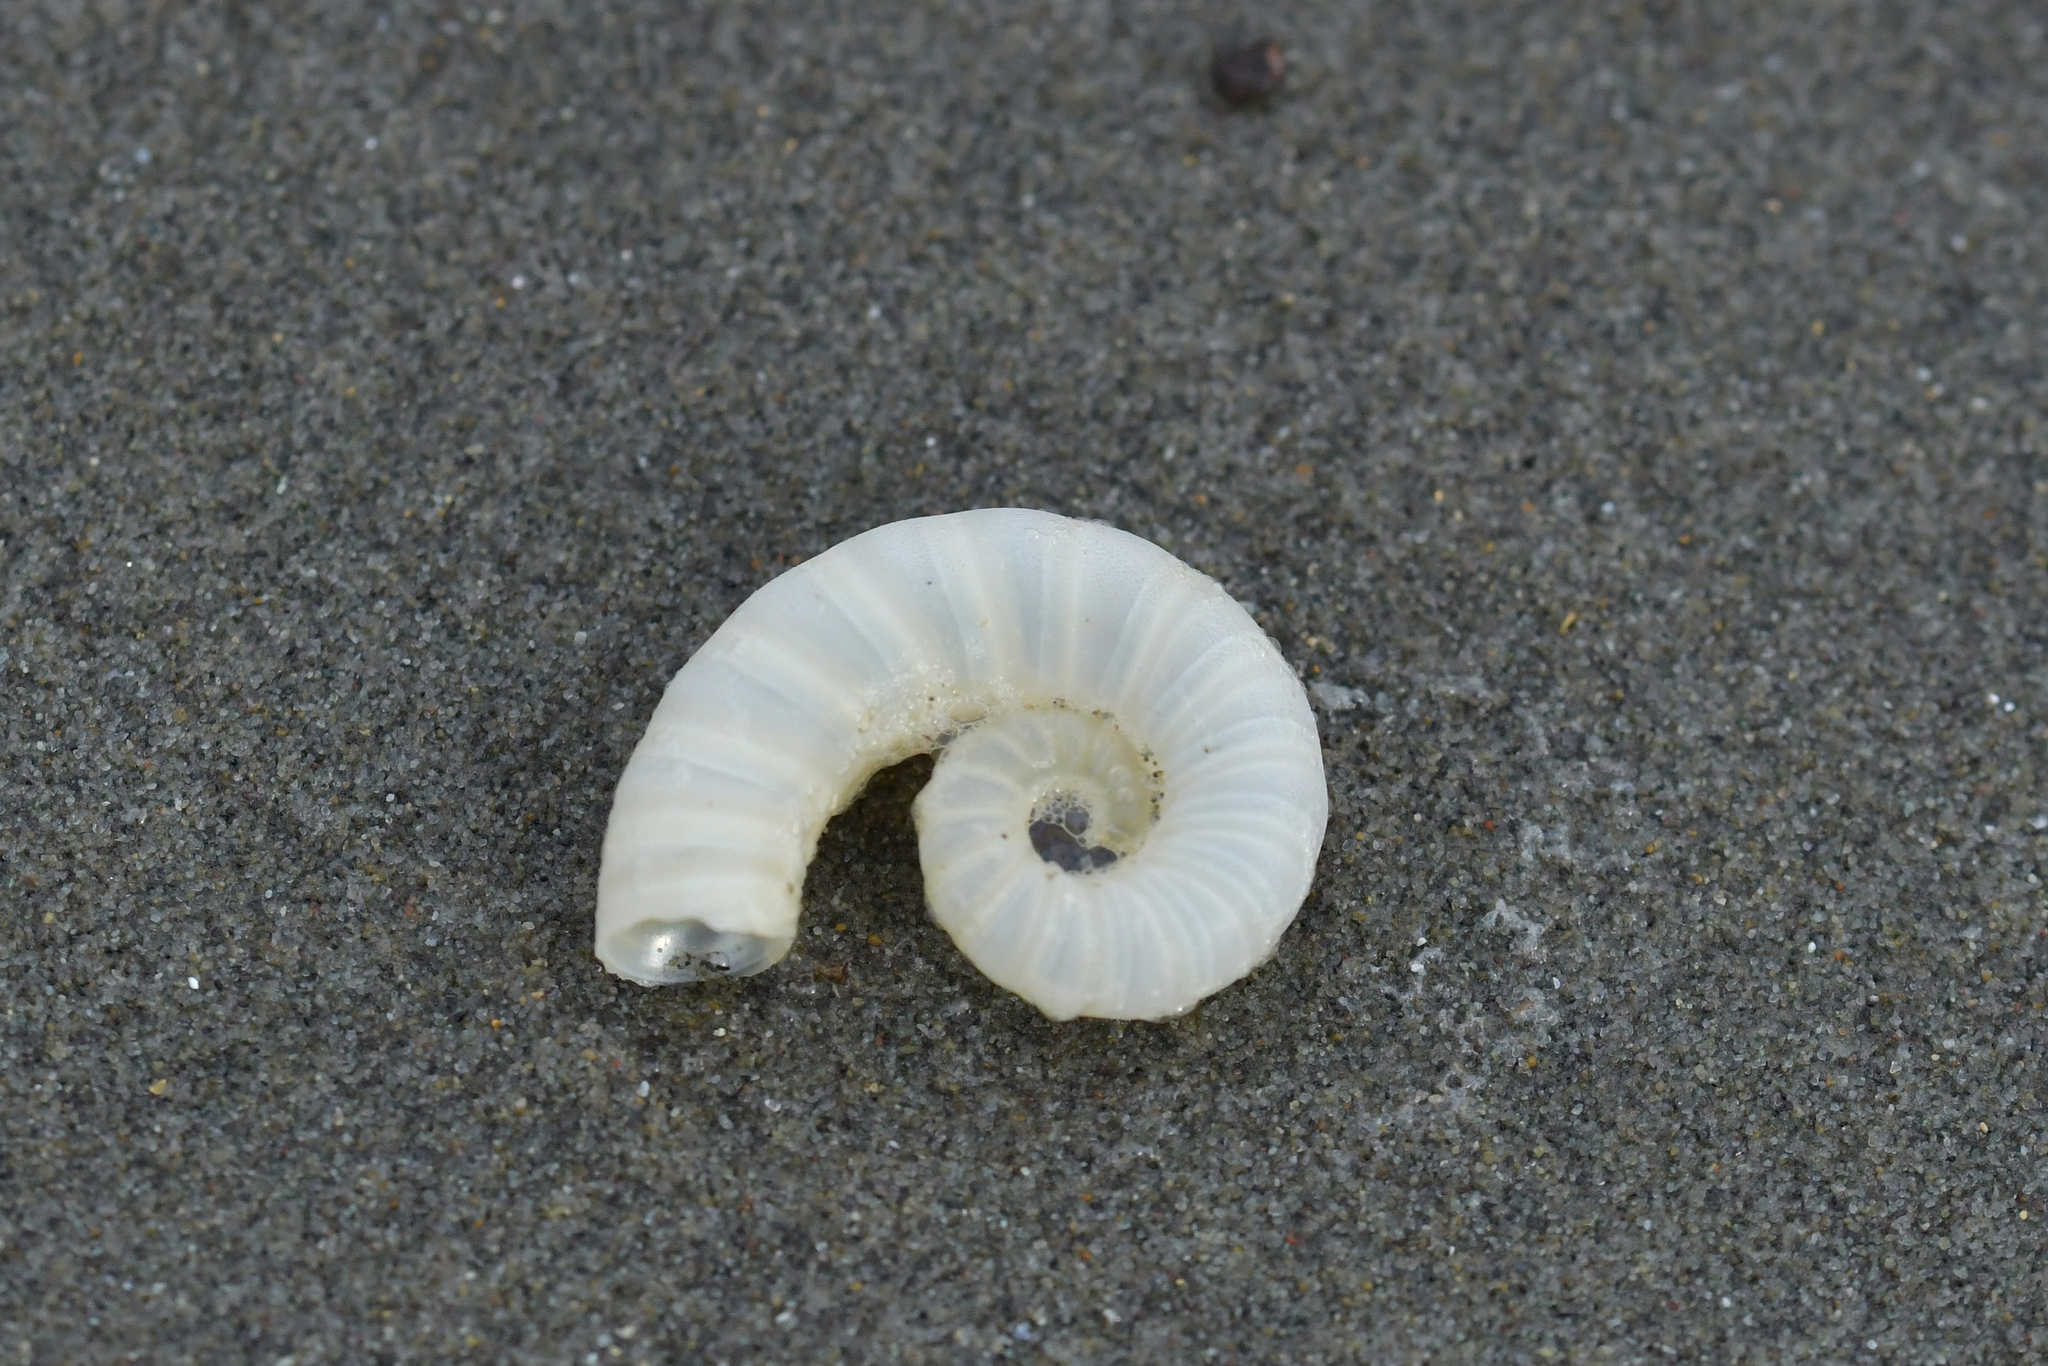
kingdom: Animalia
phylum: Mollusca
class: Cephalopoda
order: Spirulida
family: Spirulidae
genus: Spirula
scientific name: Spirula spirula
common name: Ram's horn squid
